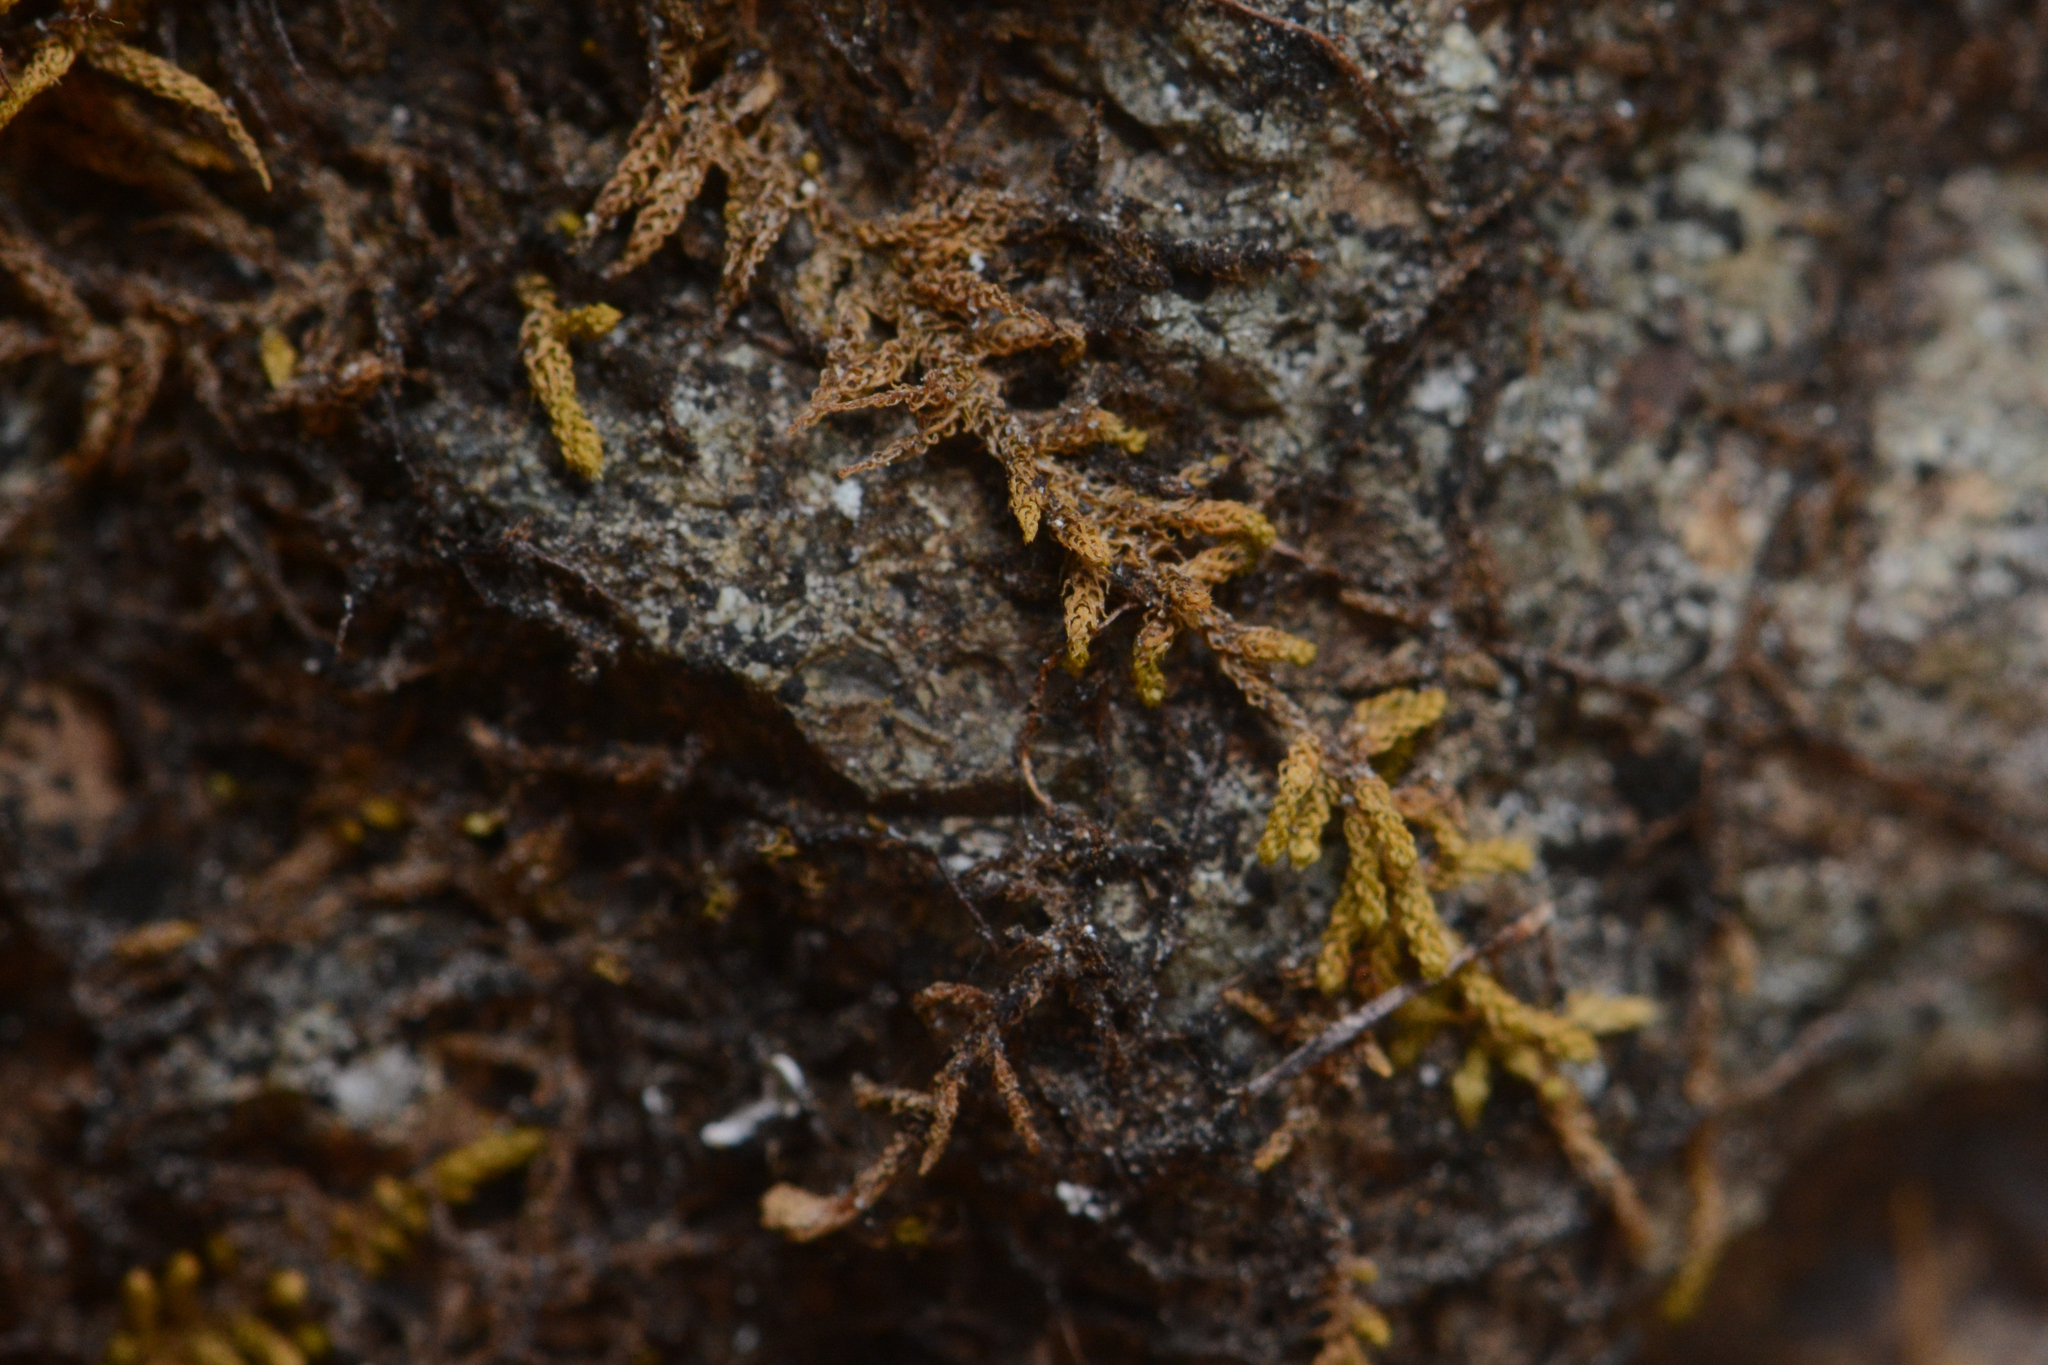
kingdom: Plantae
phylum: Bryophyta
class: Bryopsida
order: Hypnales
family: Brachytheciaceae
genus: Claopodium
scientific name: Claopodium bolanderi
